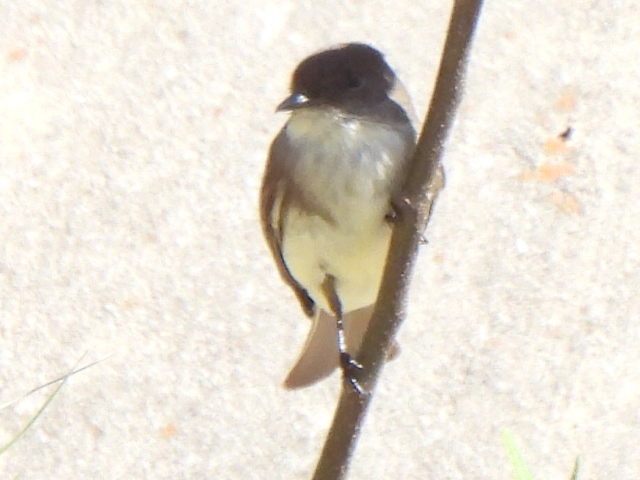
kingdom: Animalia
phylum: Chordata
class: Aves
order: Passeriformes
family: Tyrannidae
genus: Sayornis
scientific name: Sayornis phoebe
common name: Eastern phoebe
